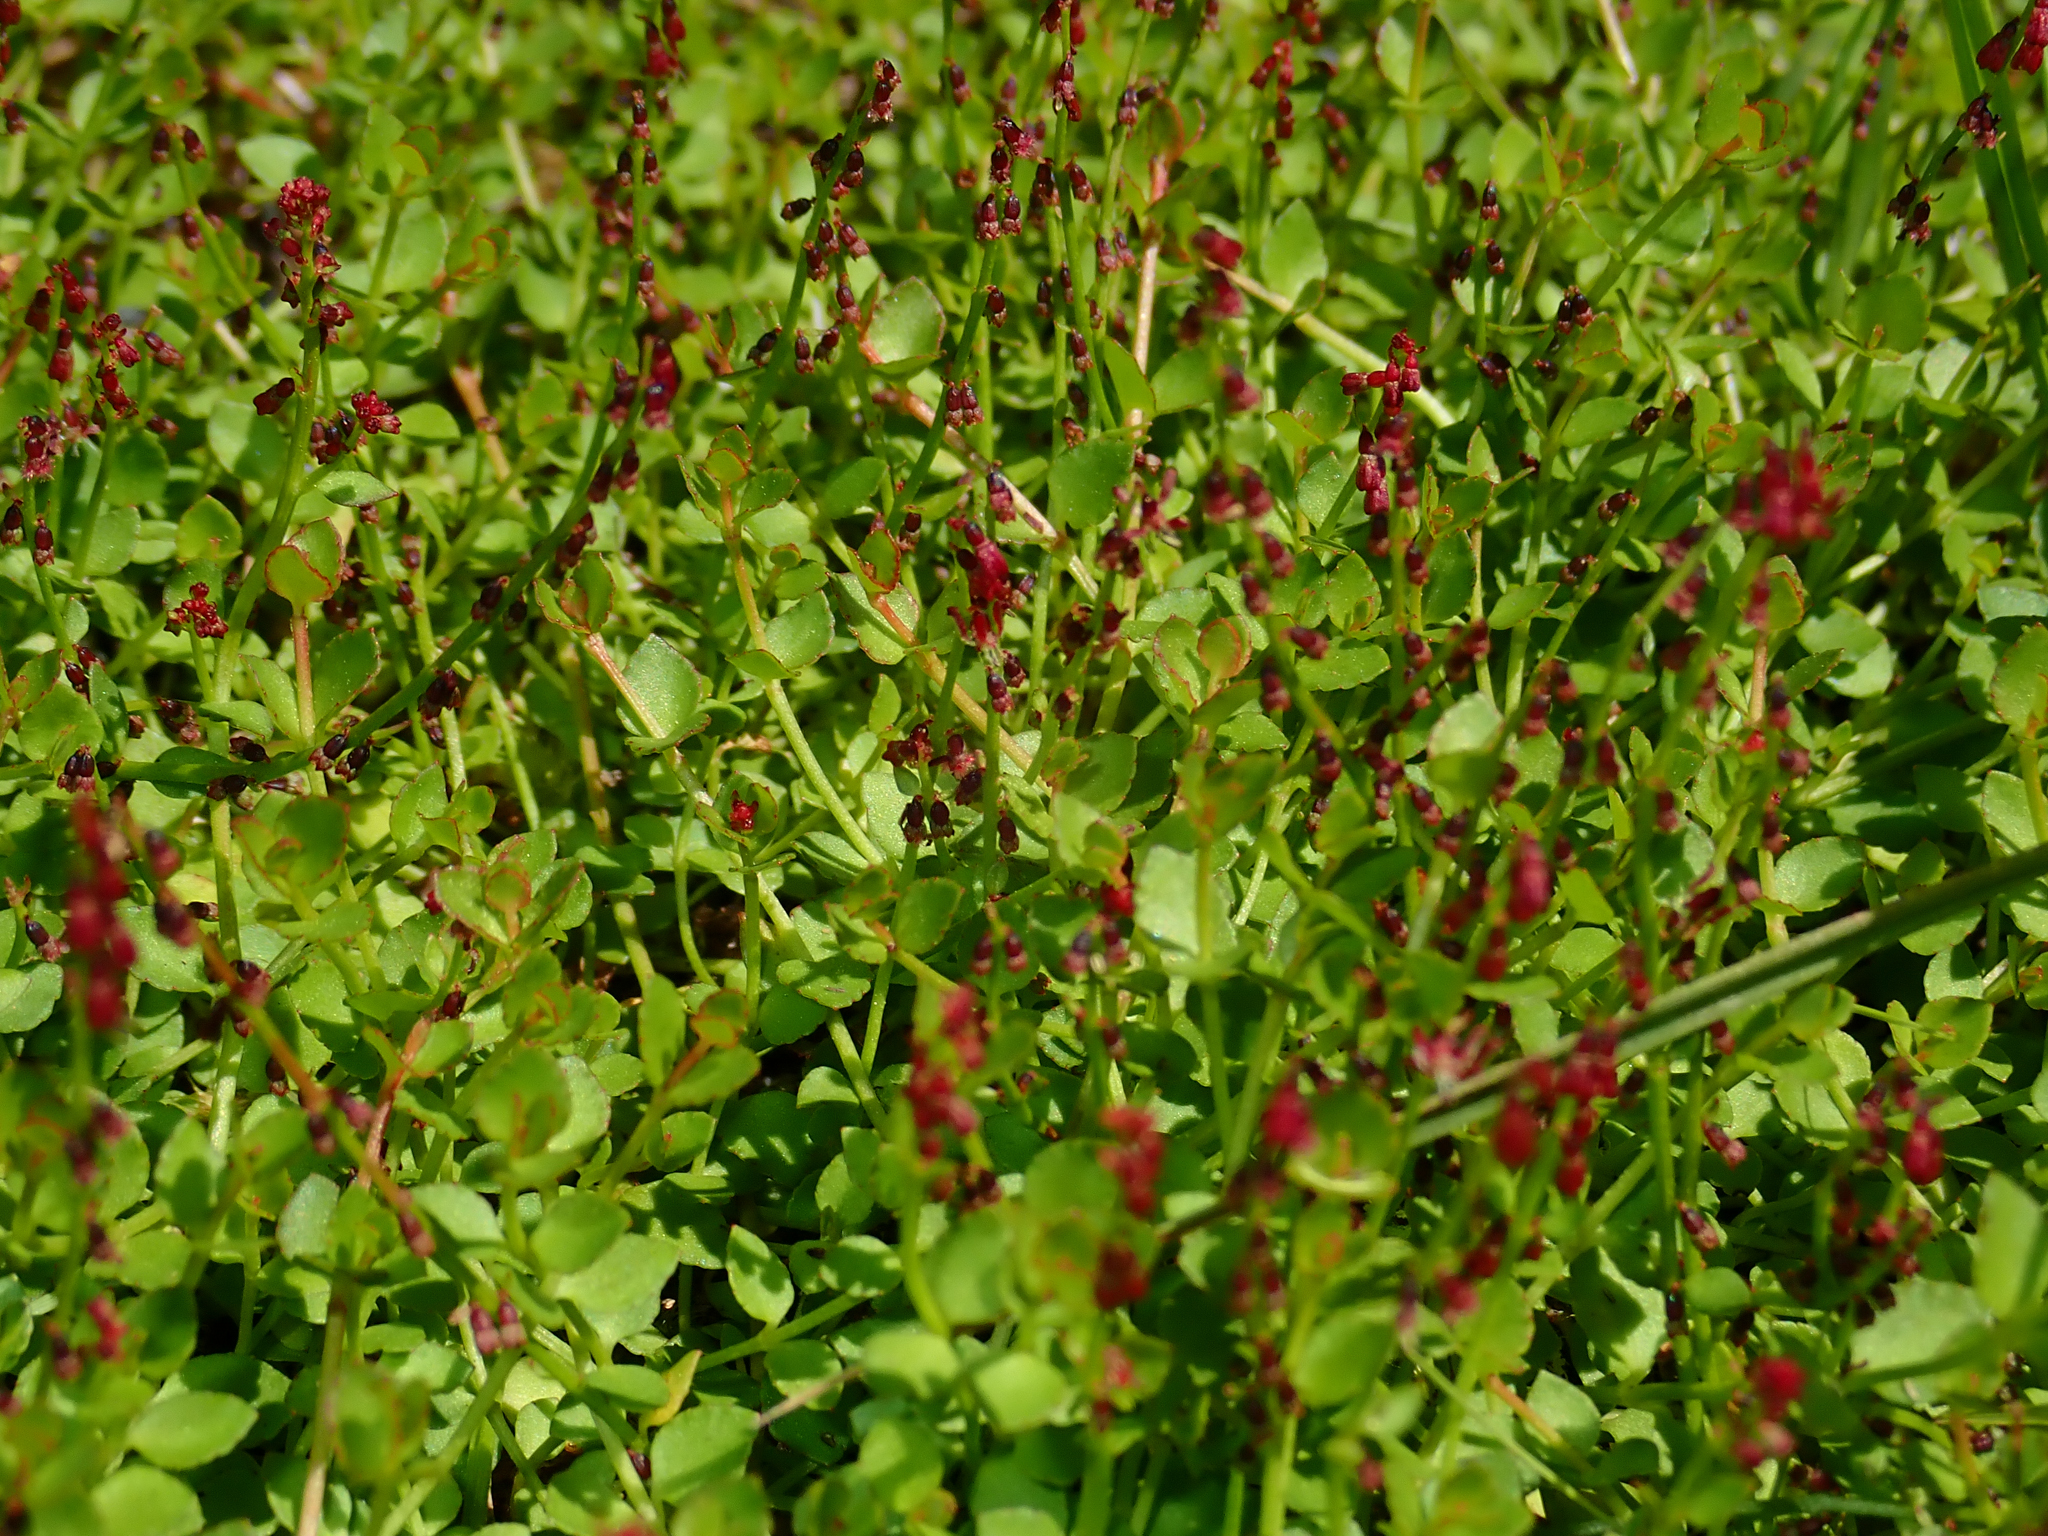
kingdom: Plantae
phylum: Tracheophyta
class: Magnoliopsida
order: Saxifragales
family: Haloragaceae
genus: Gonocarpus
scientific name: Gonocarpus micranthus
